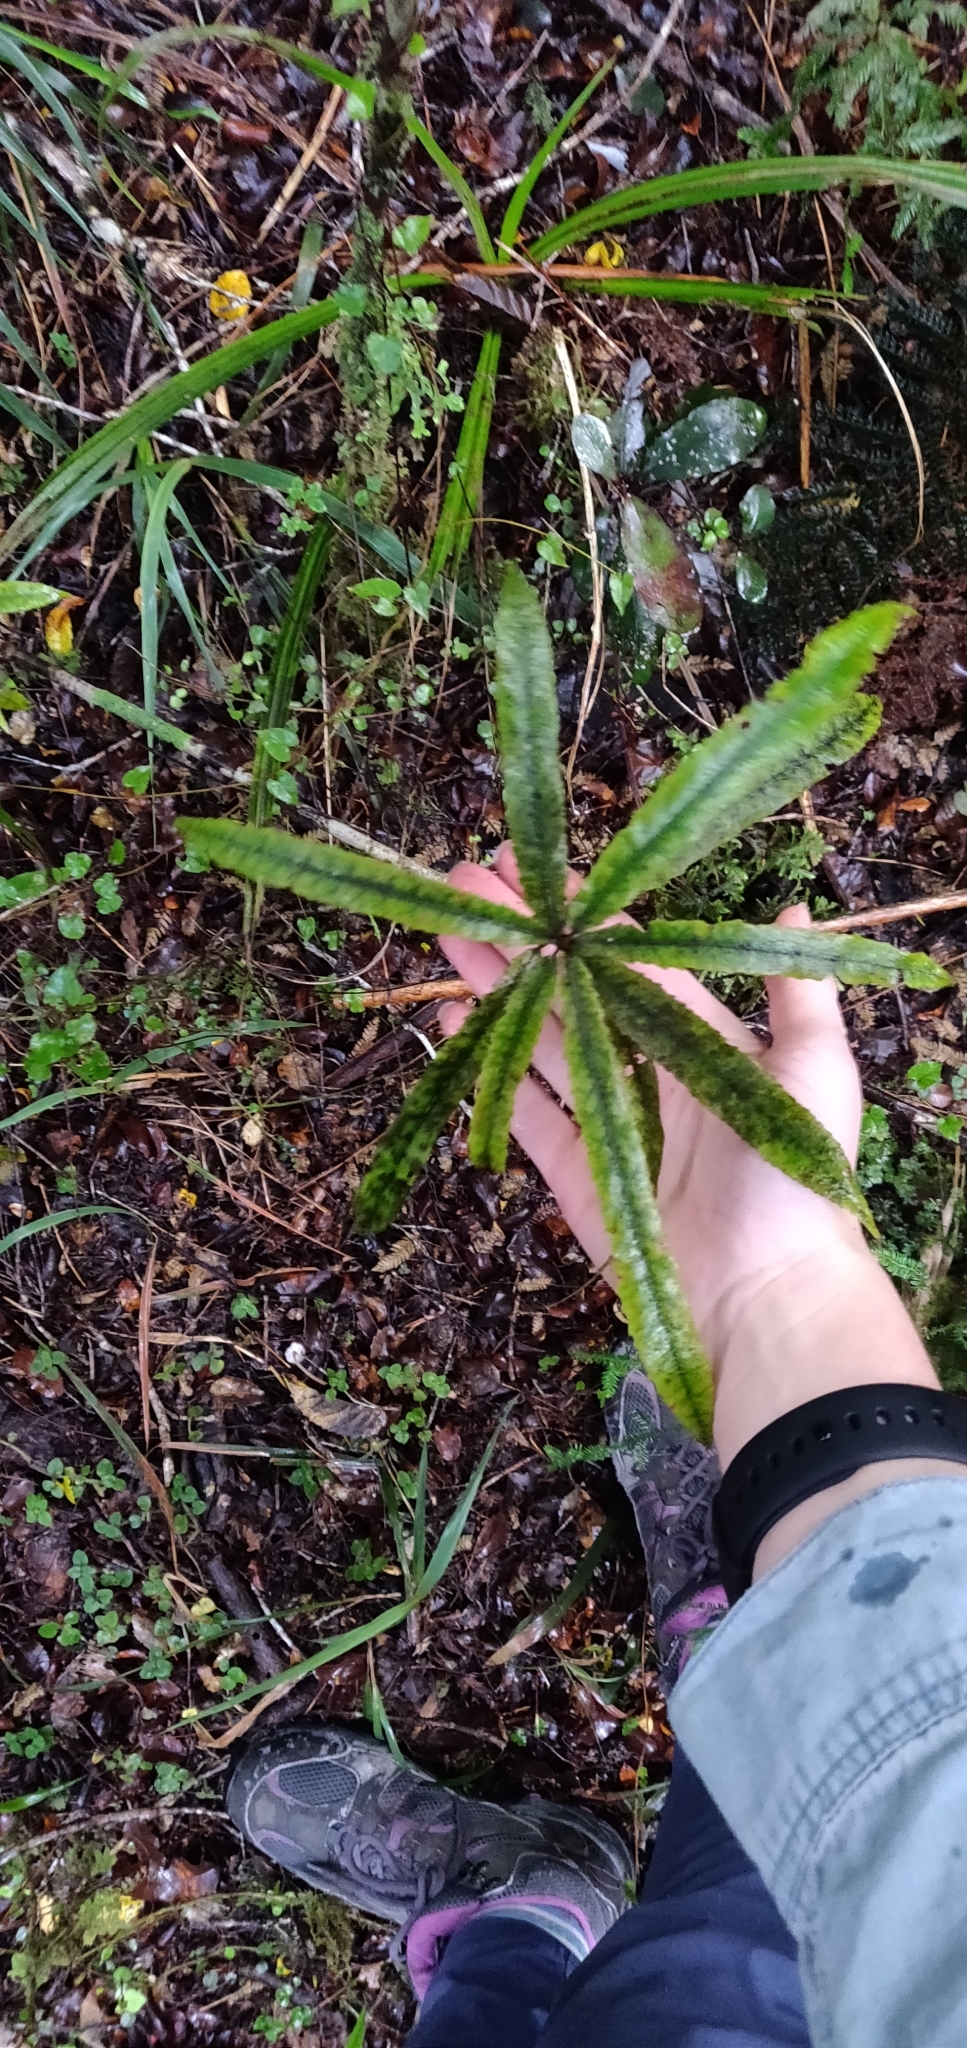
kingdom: Plantae
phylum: Tracheophyta
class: Magnoliopsida
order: Oxalidales
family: Elaeocarpaceae
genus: Elaeocarpus
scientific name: Elaeocarpus dentatus
